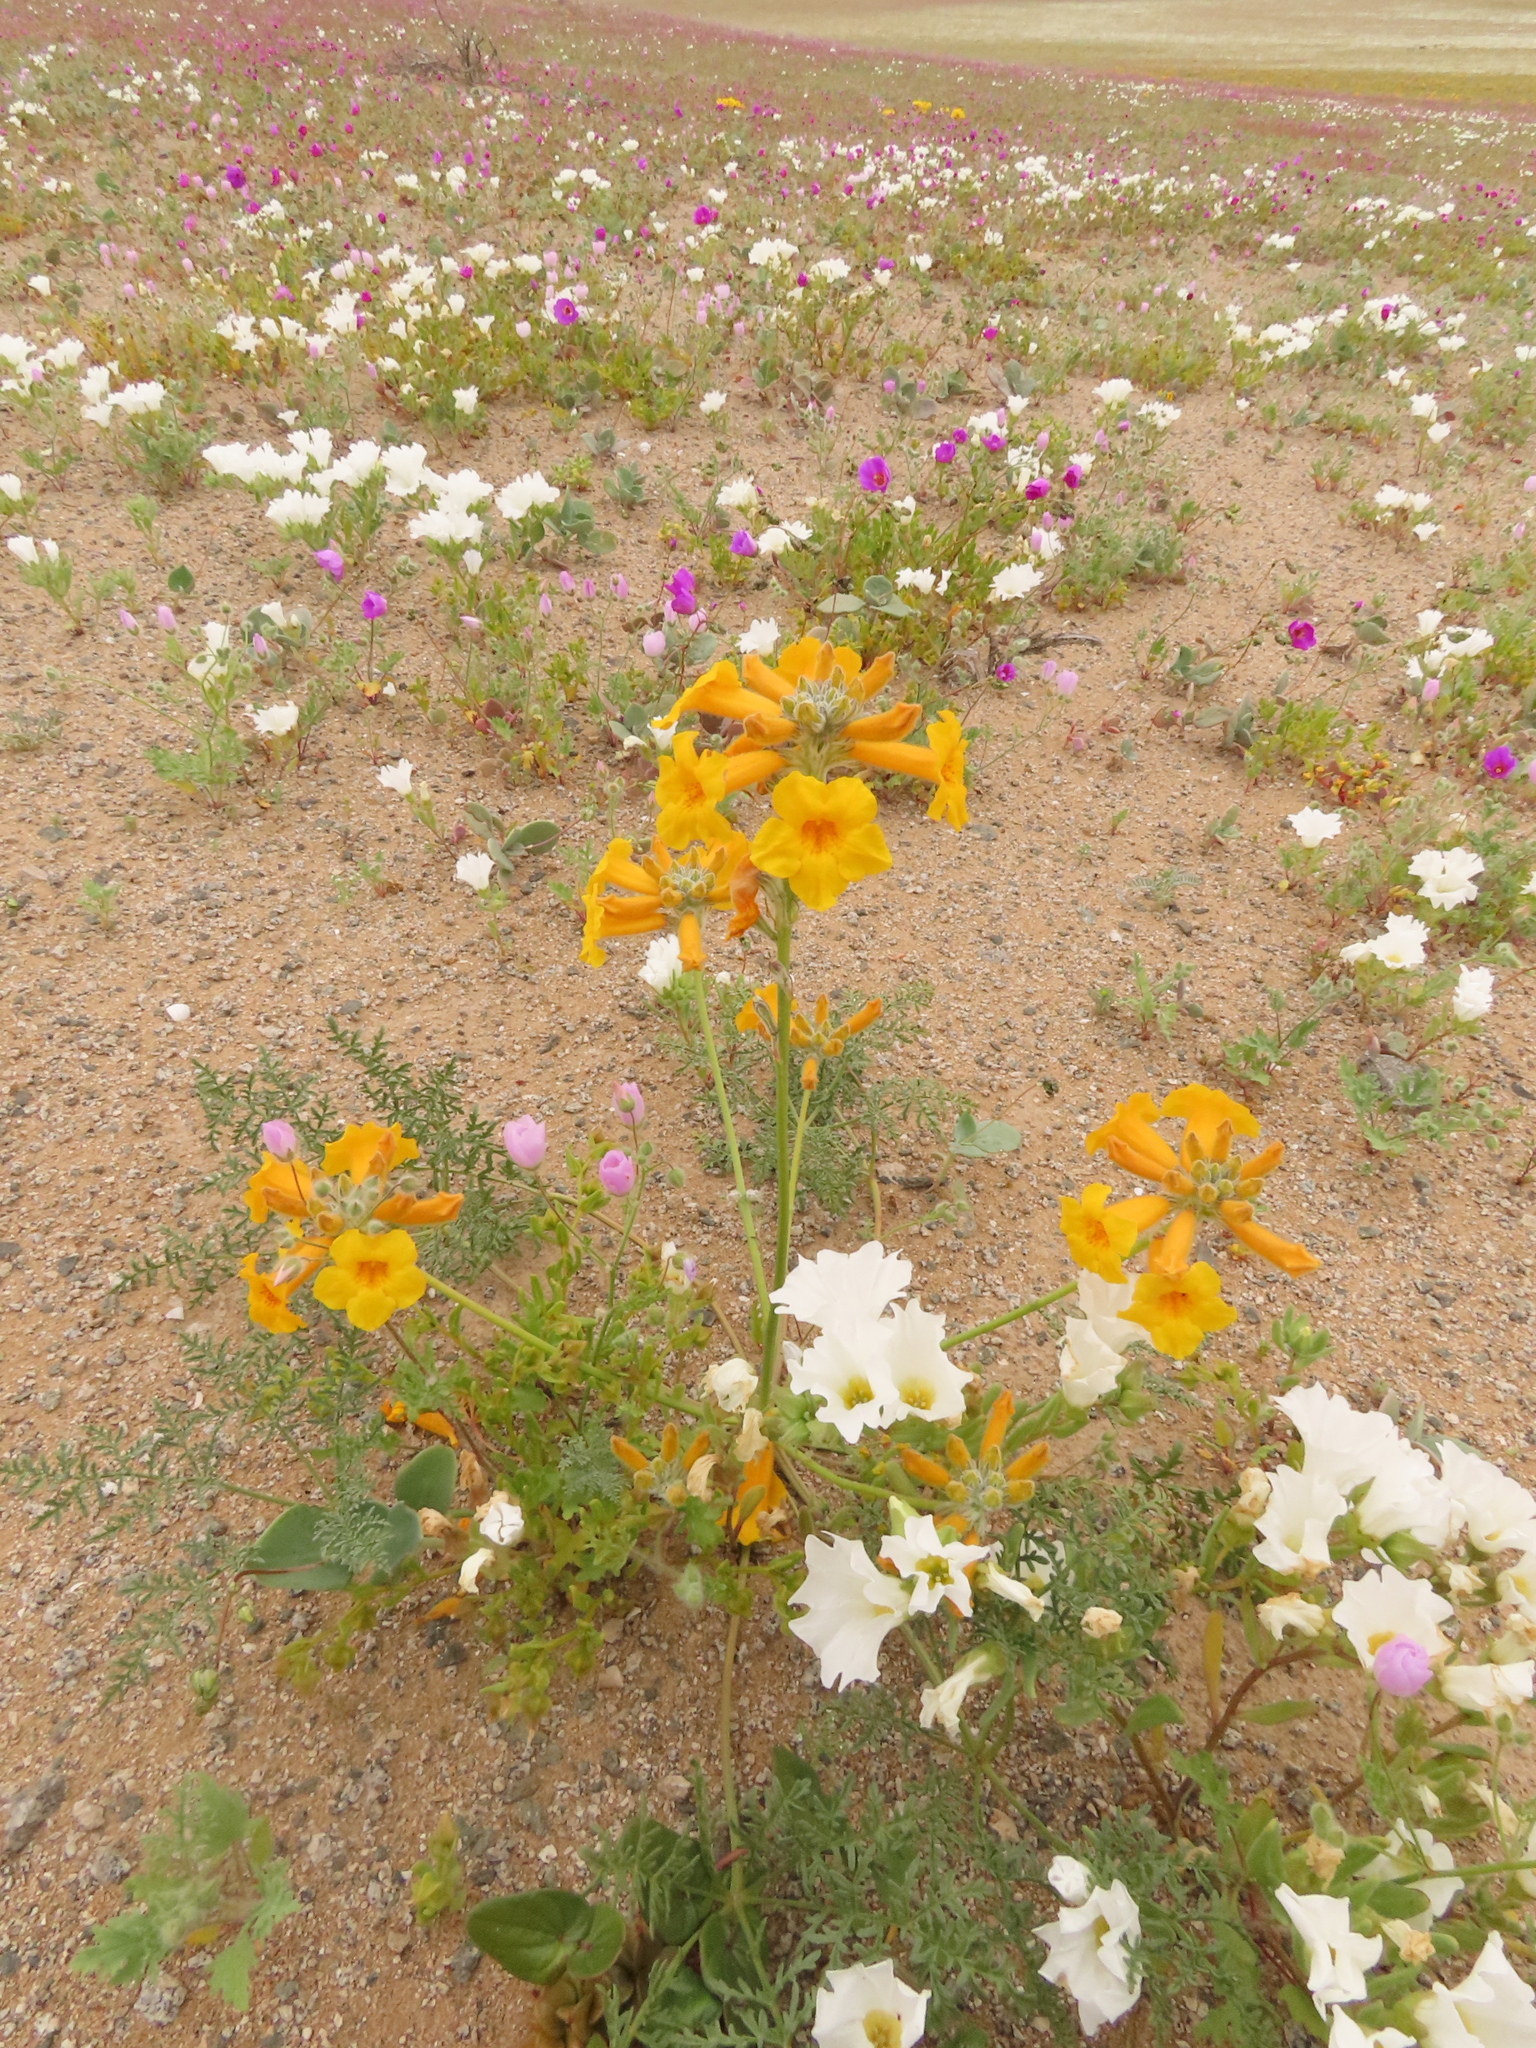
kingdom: Plantae
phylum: Tracheophyta
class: Magnoliopsida
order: Lamiales
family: Bignoniaceae
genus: Argylia
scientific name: Argylia radiata
